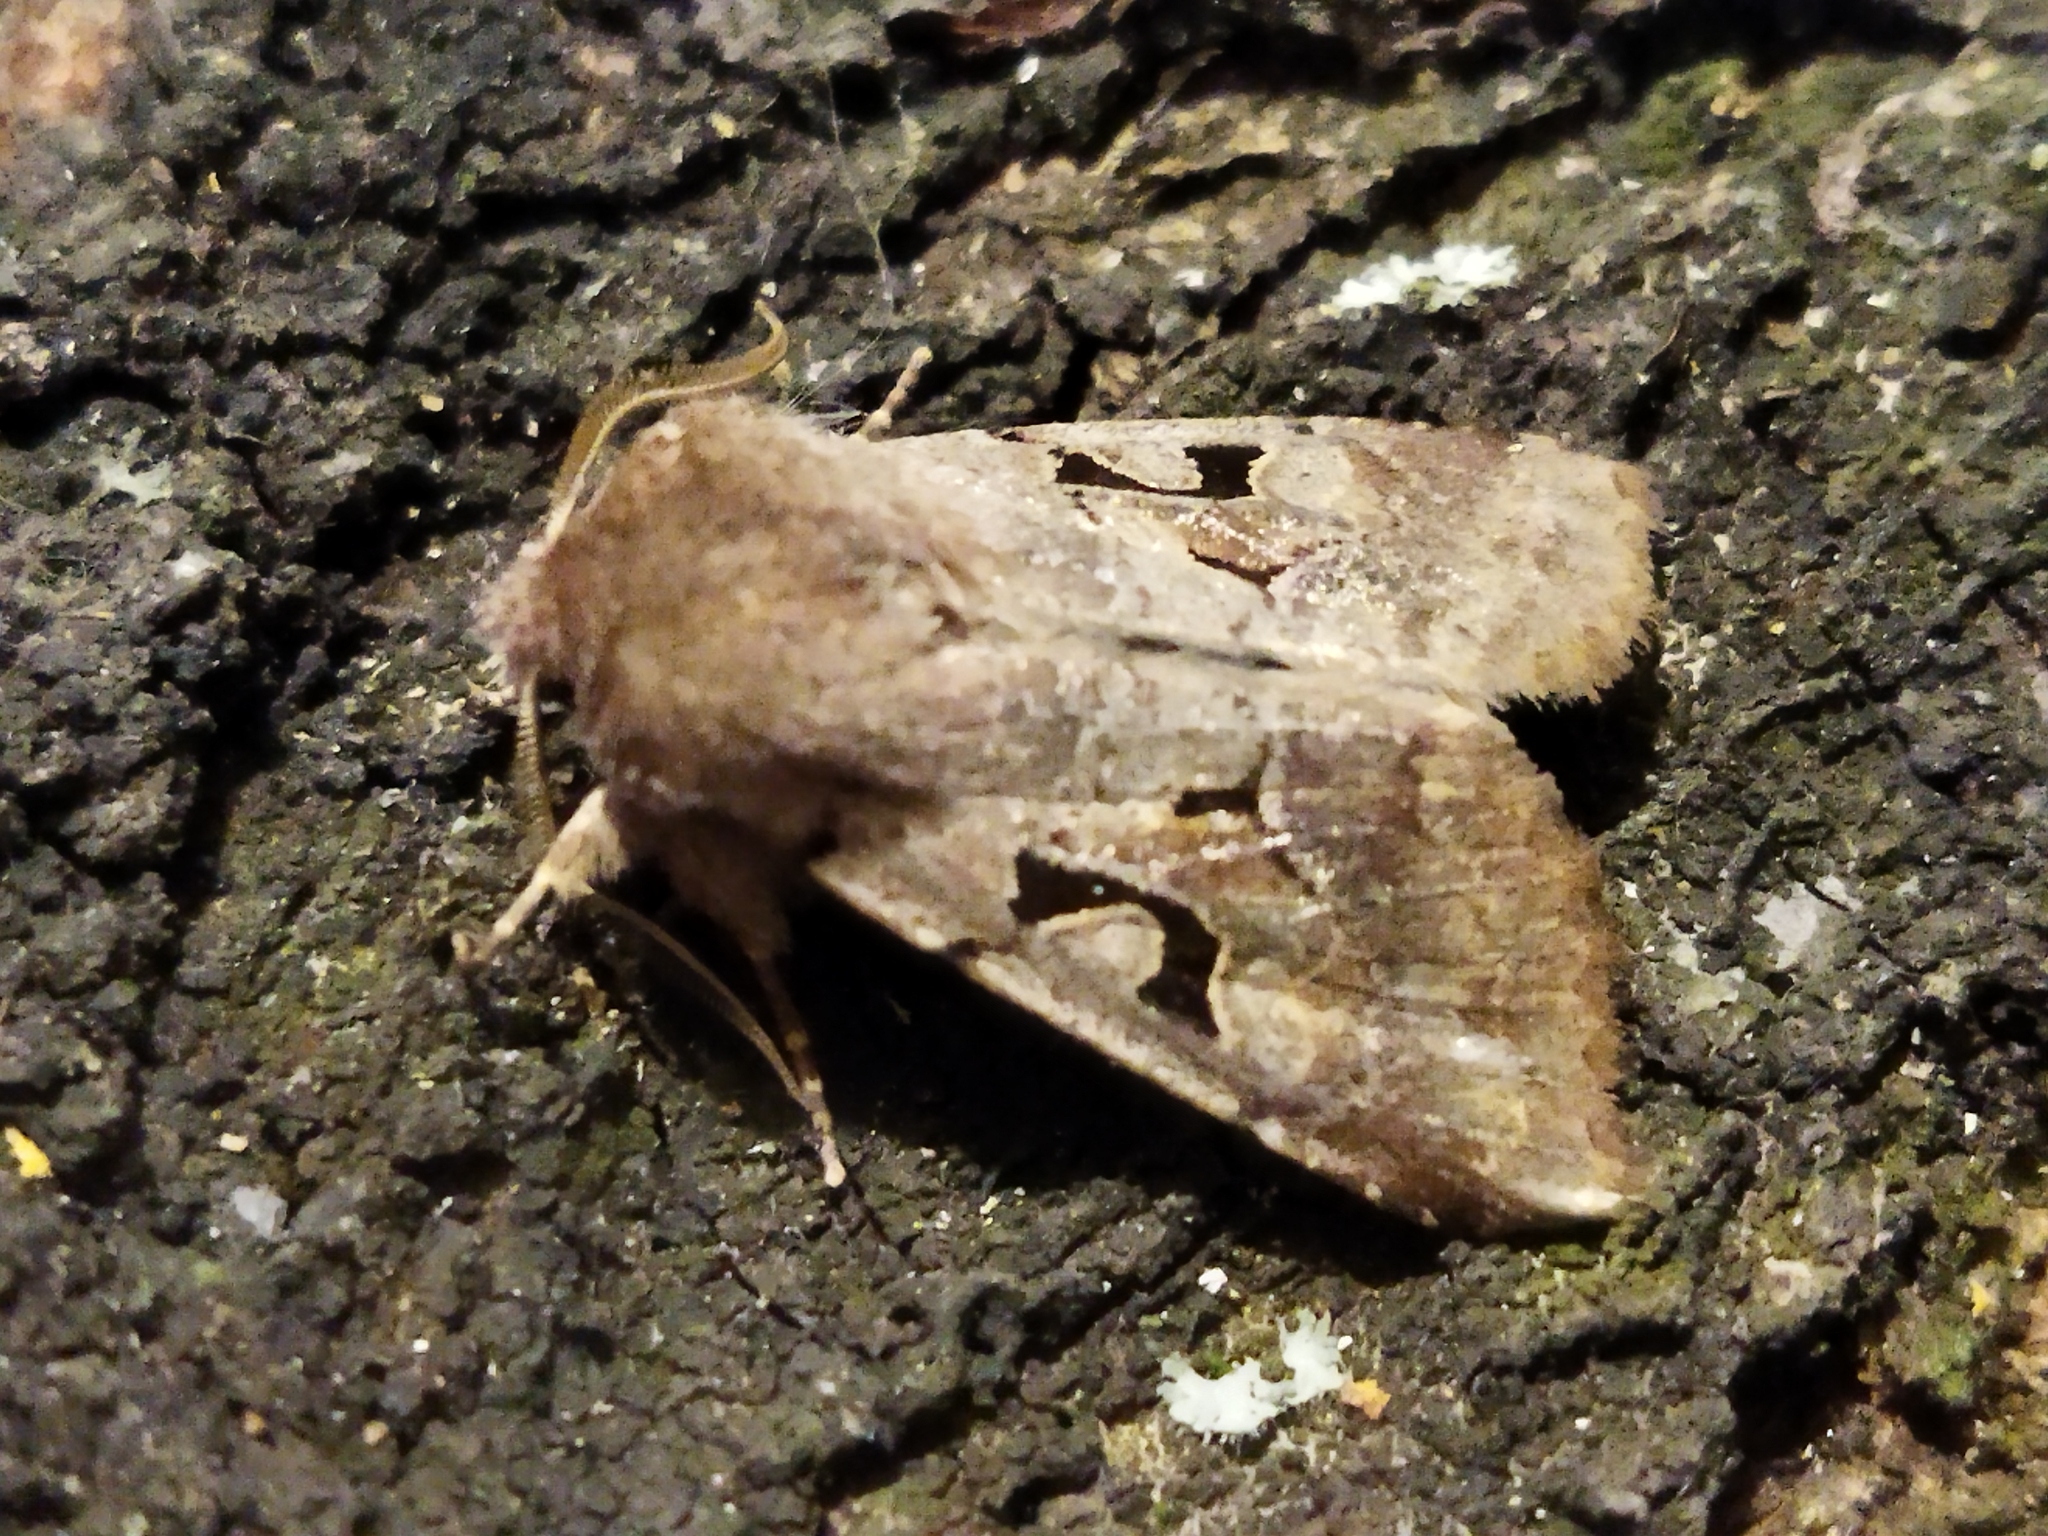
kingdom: Animalia
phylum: Arthropoda
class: Insecta
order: Lepidoptera
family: Noctuidae
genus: Orthosia
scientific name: Orthosia gothica
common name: Hebrew character
